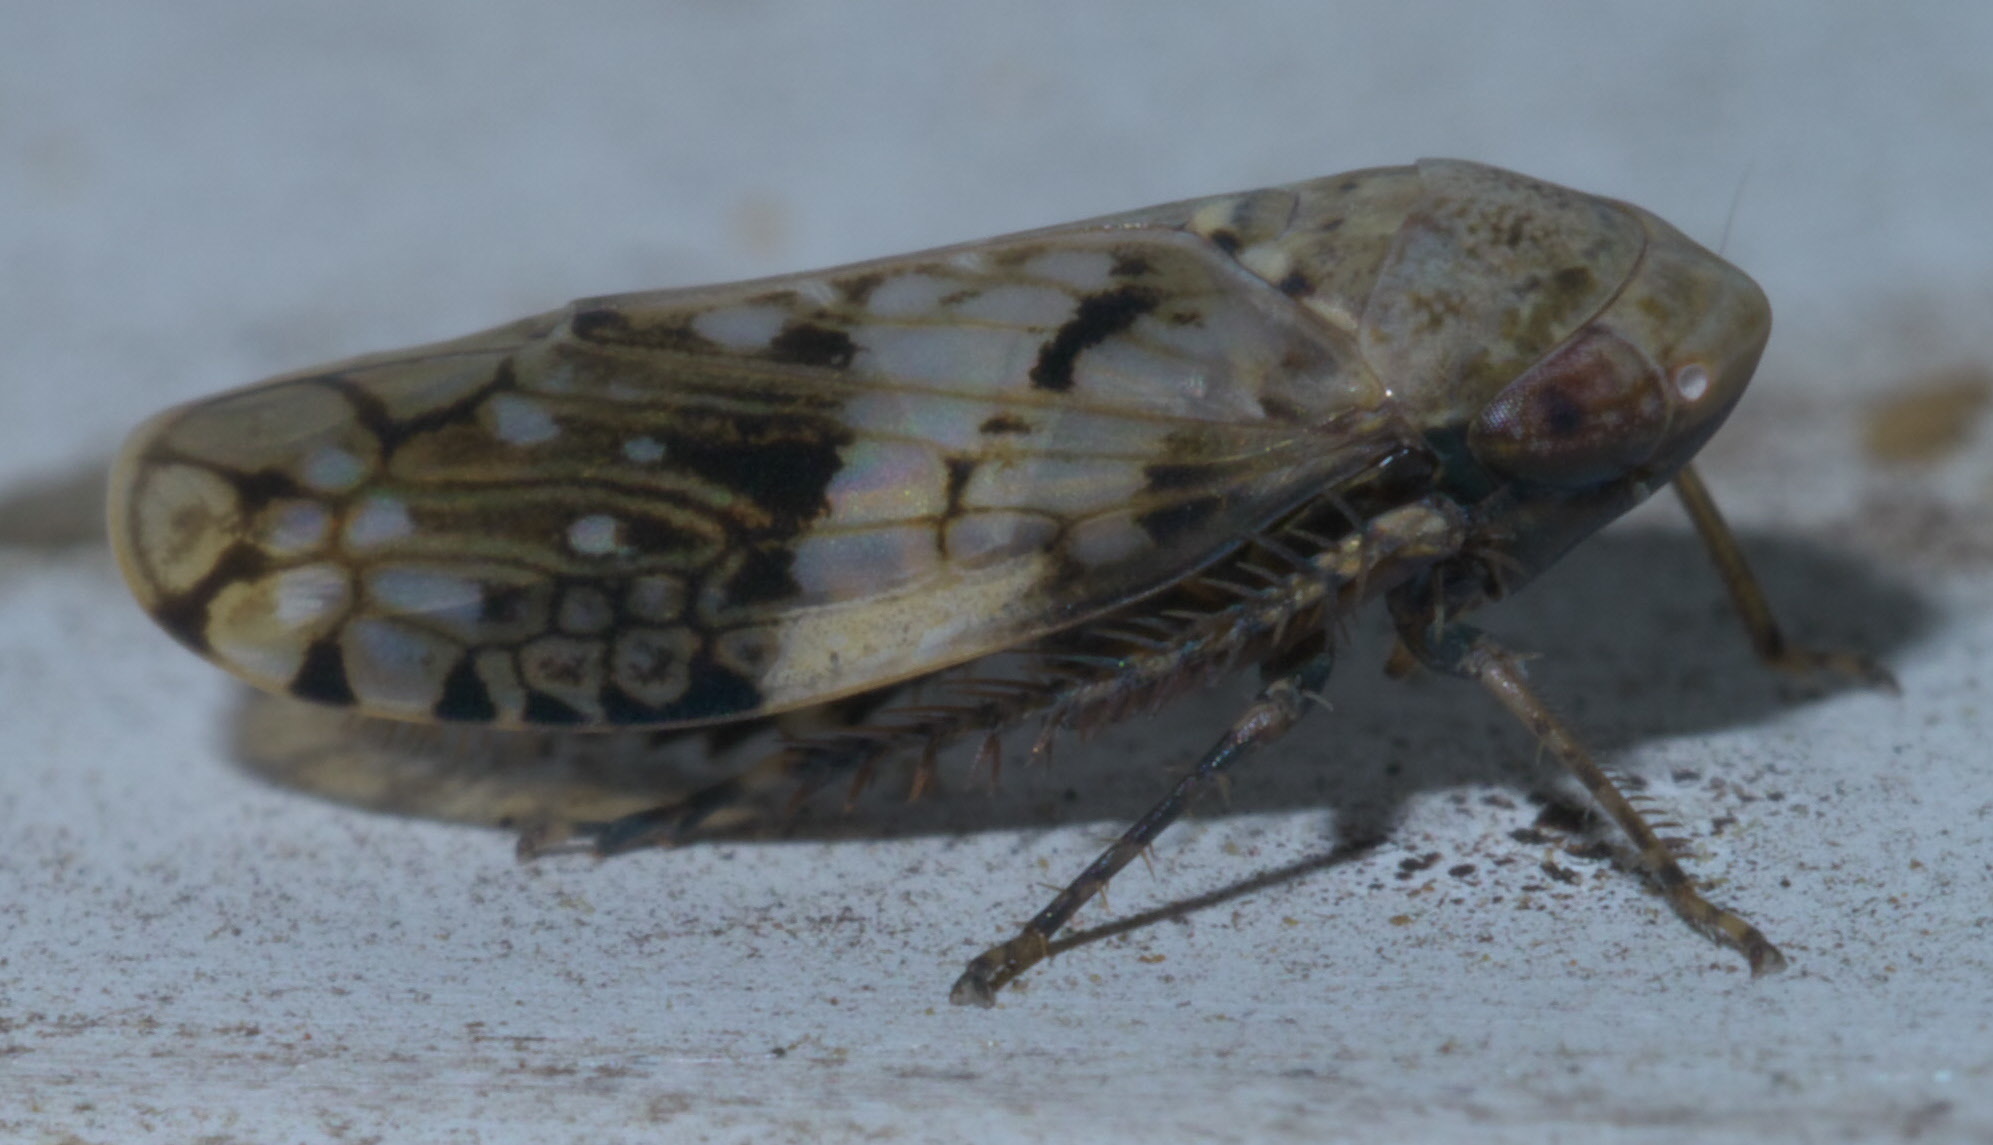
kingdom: Animalia
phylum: Arthropoda
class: Insecta
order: Hemiptera
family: Cicadellidae
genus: Menosoma
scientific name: Menosoma cinctum
